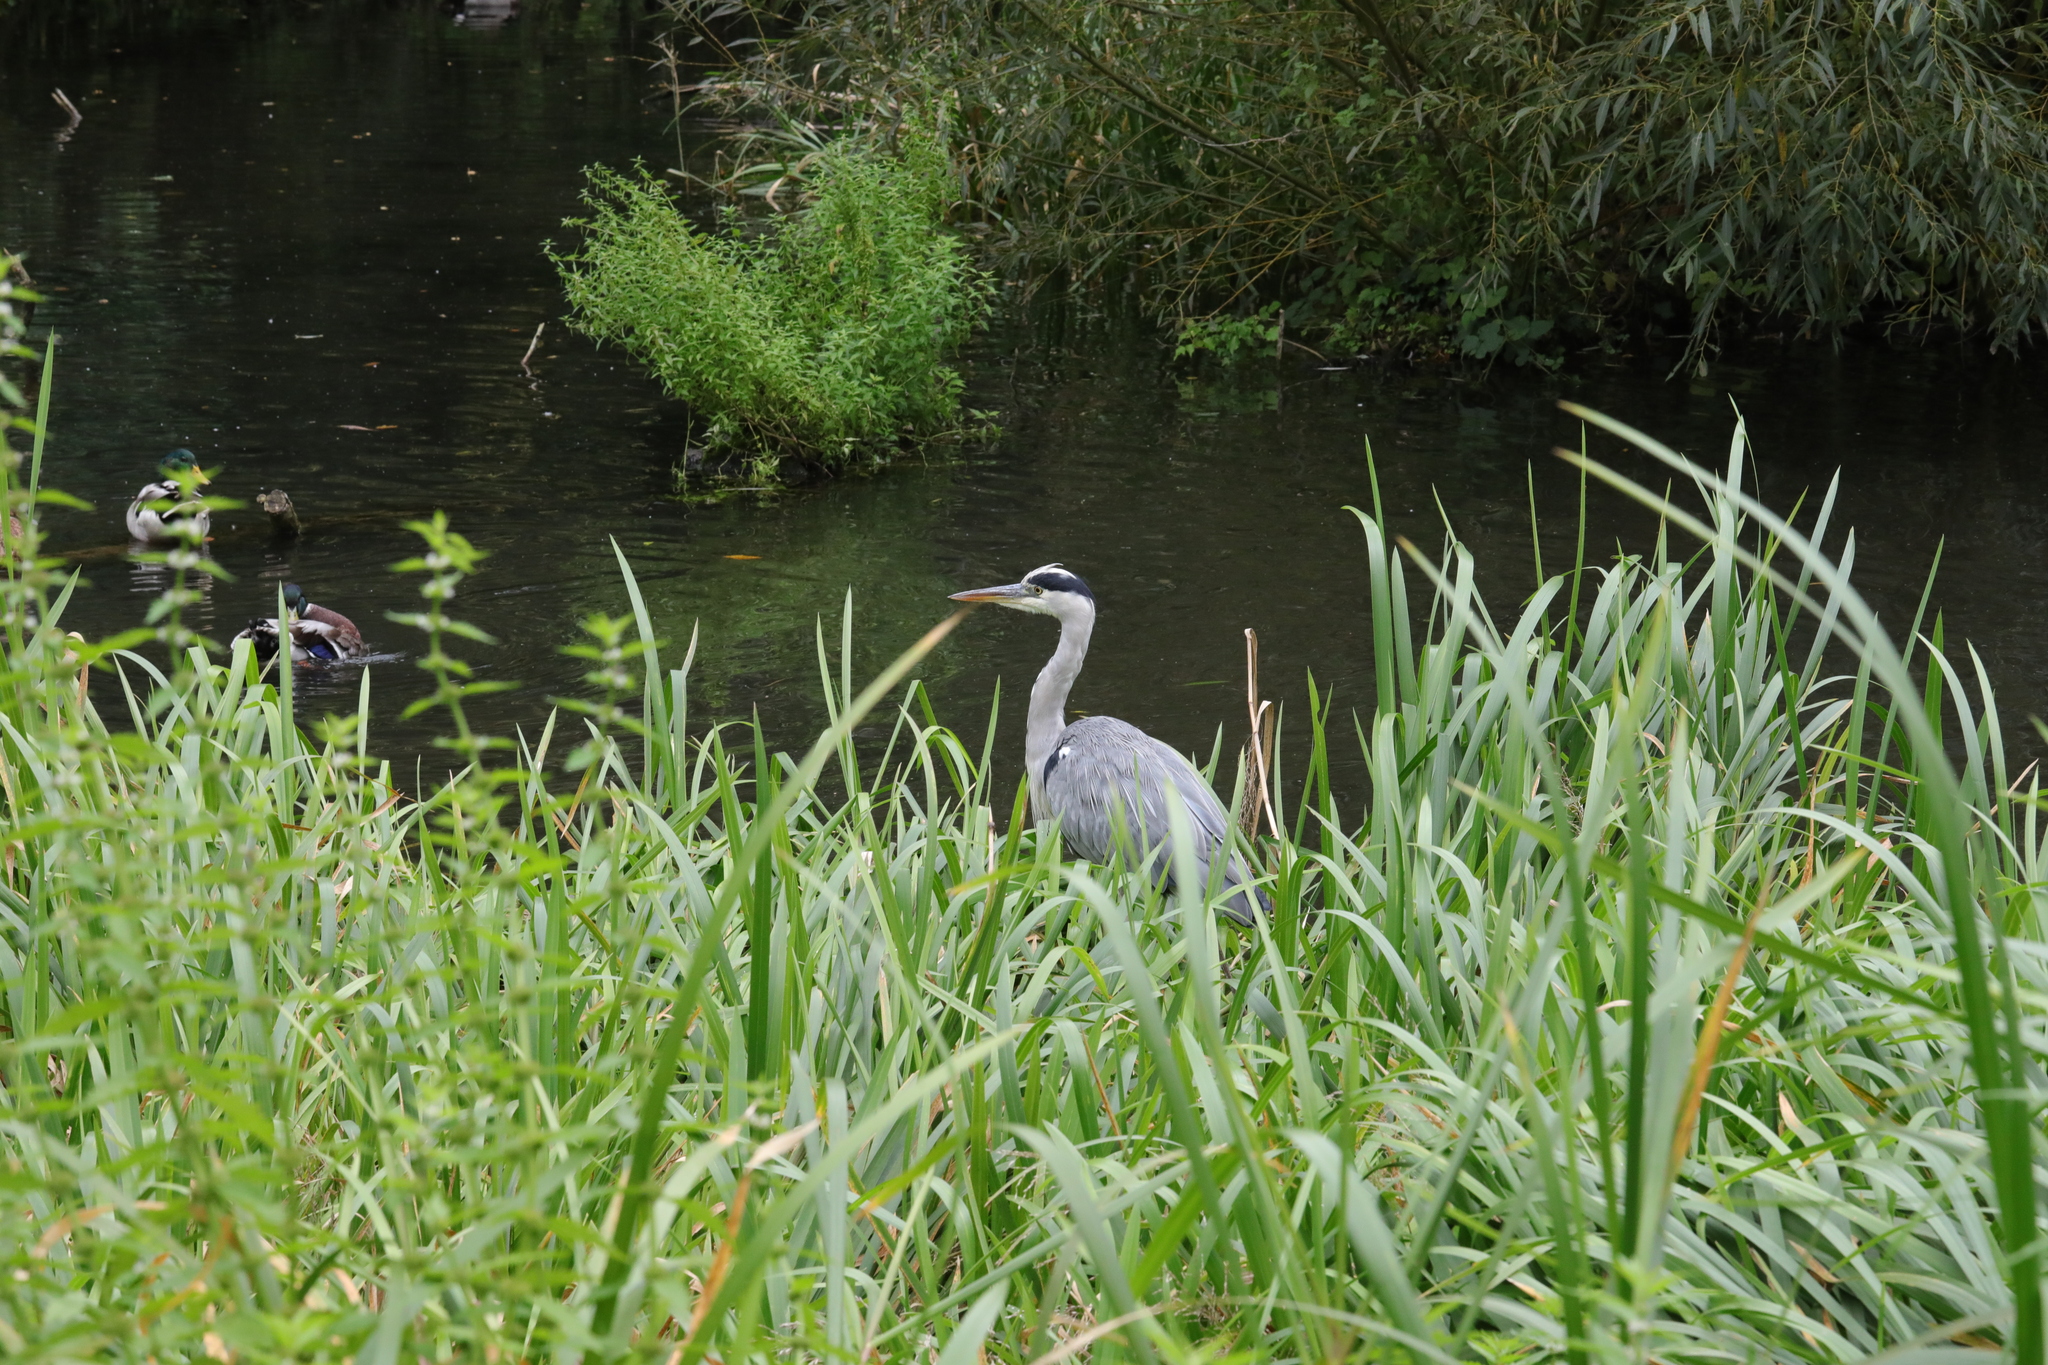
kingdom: Animalia
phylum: Chordata
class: Aves
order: Pelecaniformes
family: Ardeidae
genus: Ardea
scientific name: Ardea cinerea
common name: Grey heron
